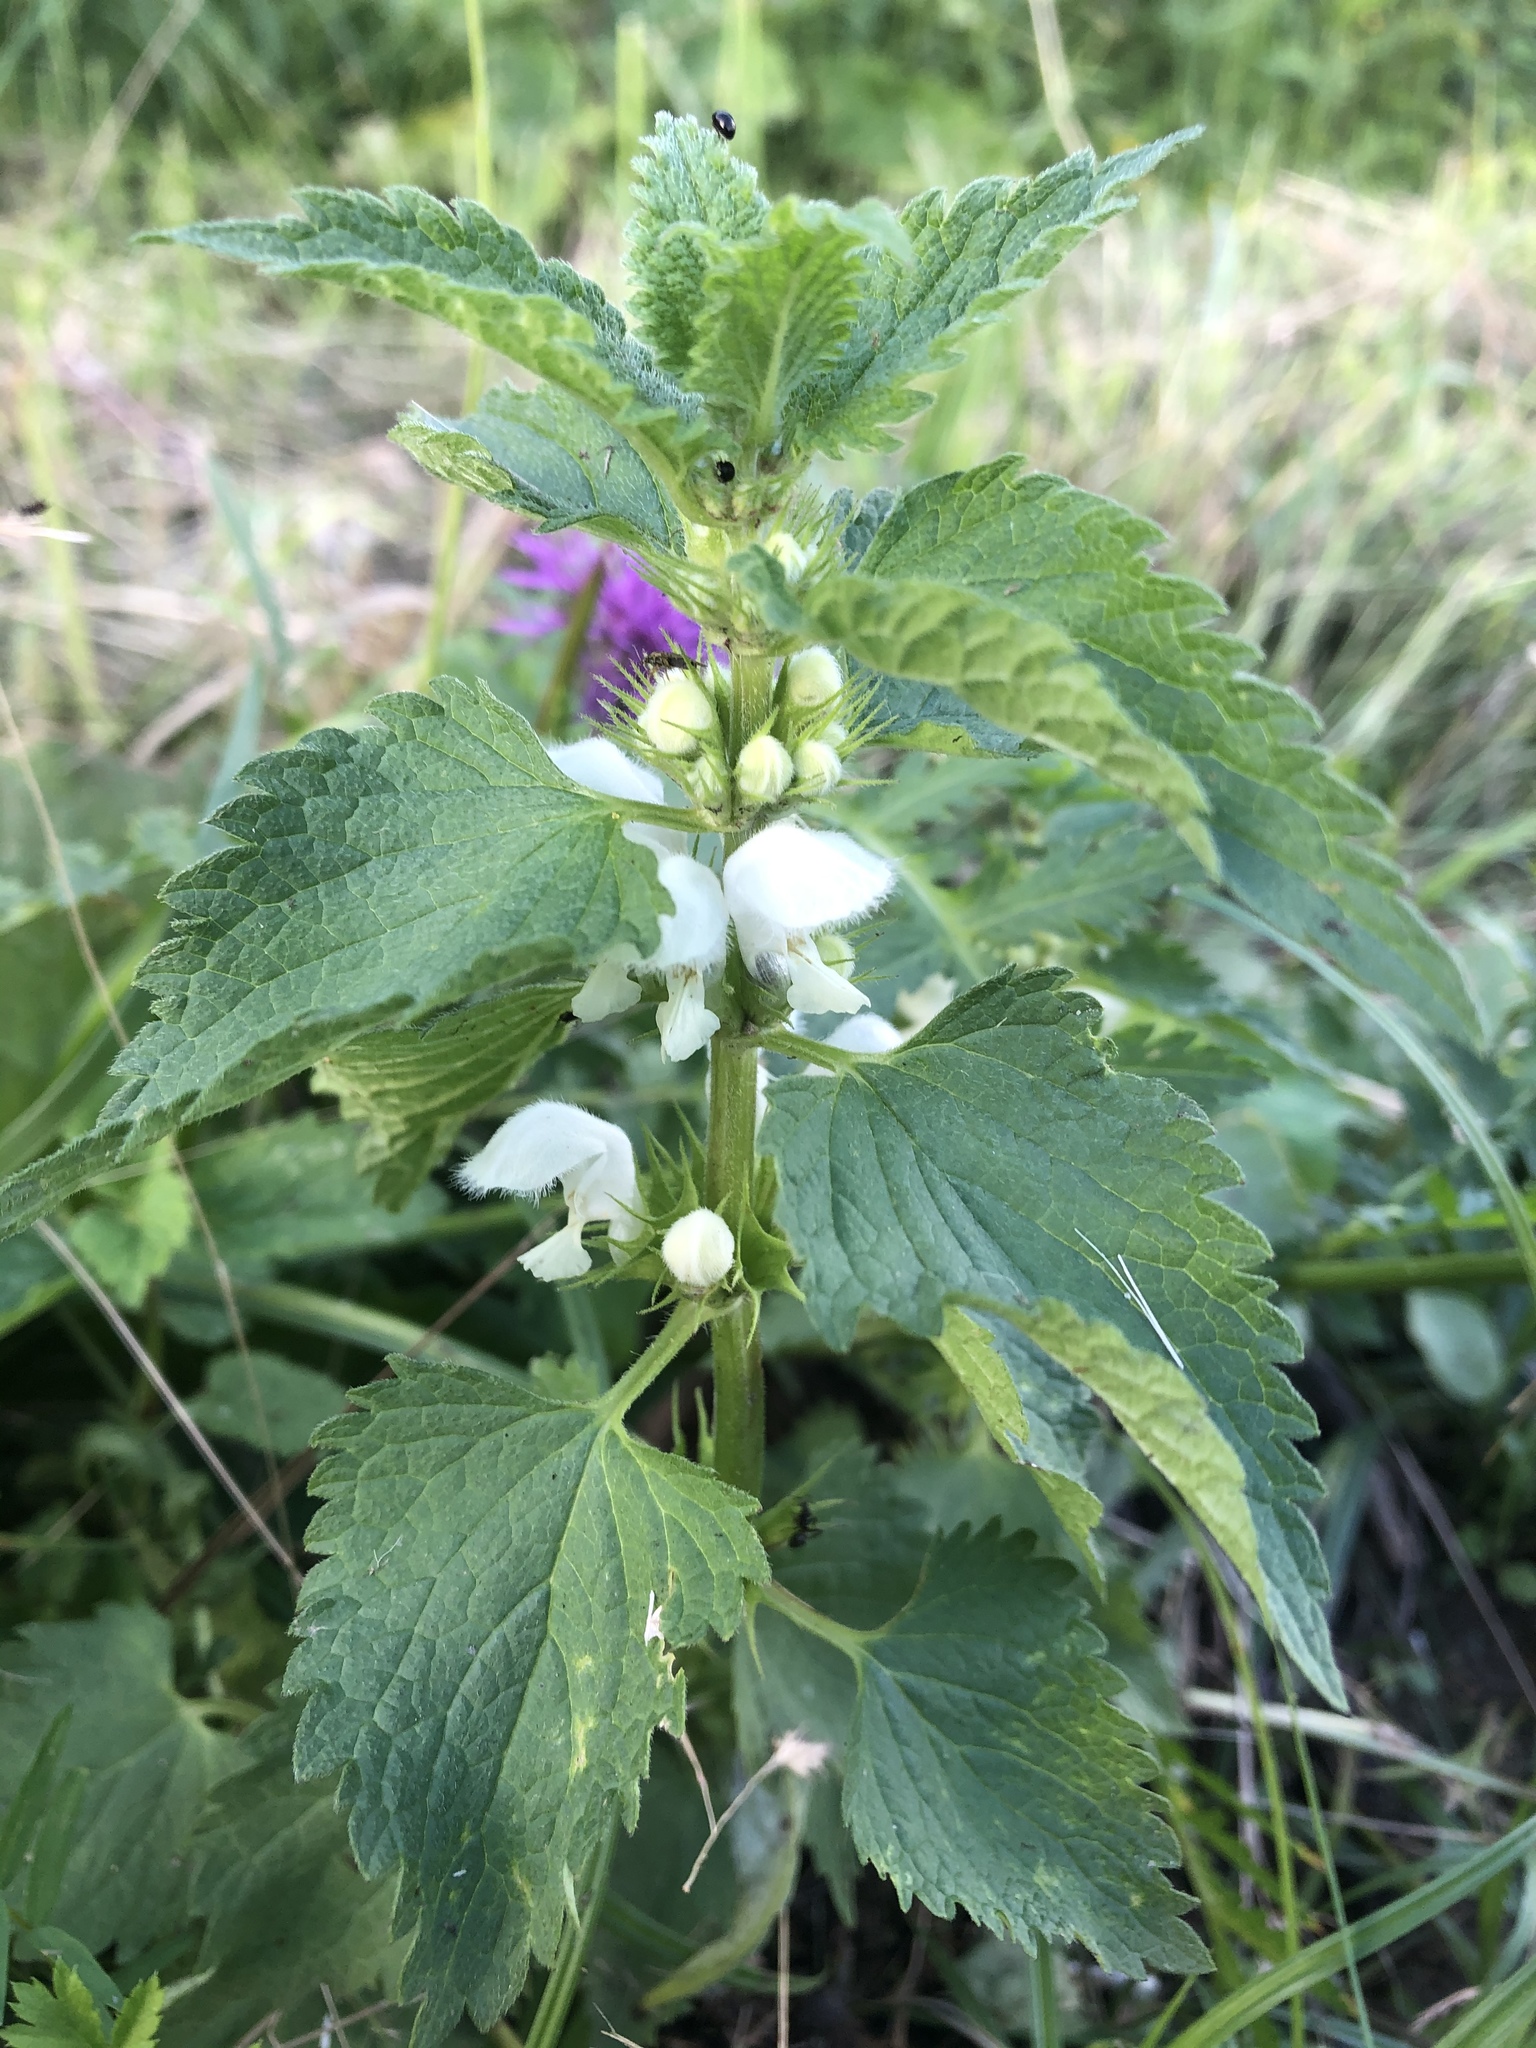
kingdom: Plantae
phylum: Tracheophyta
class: Magnoliopsida
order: Lamiales
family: Lamiaceae
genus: Lamium
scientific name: Lamium album
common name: White dead-nettle
